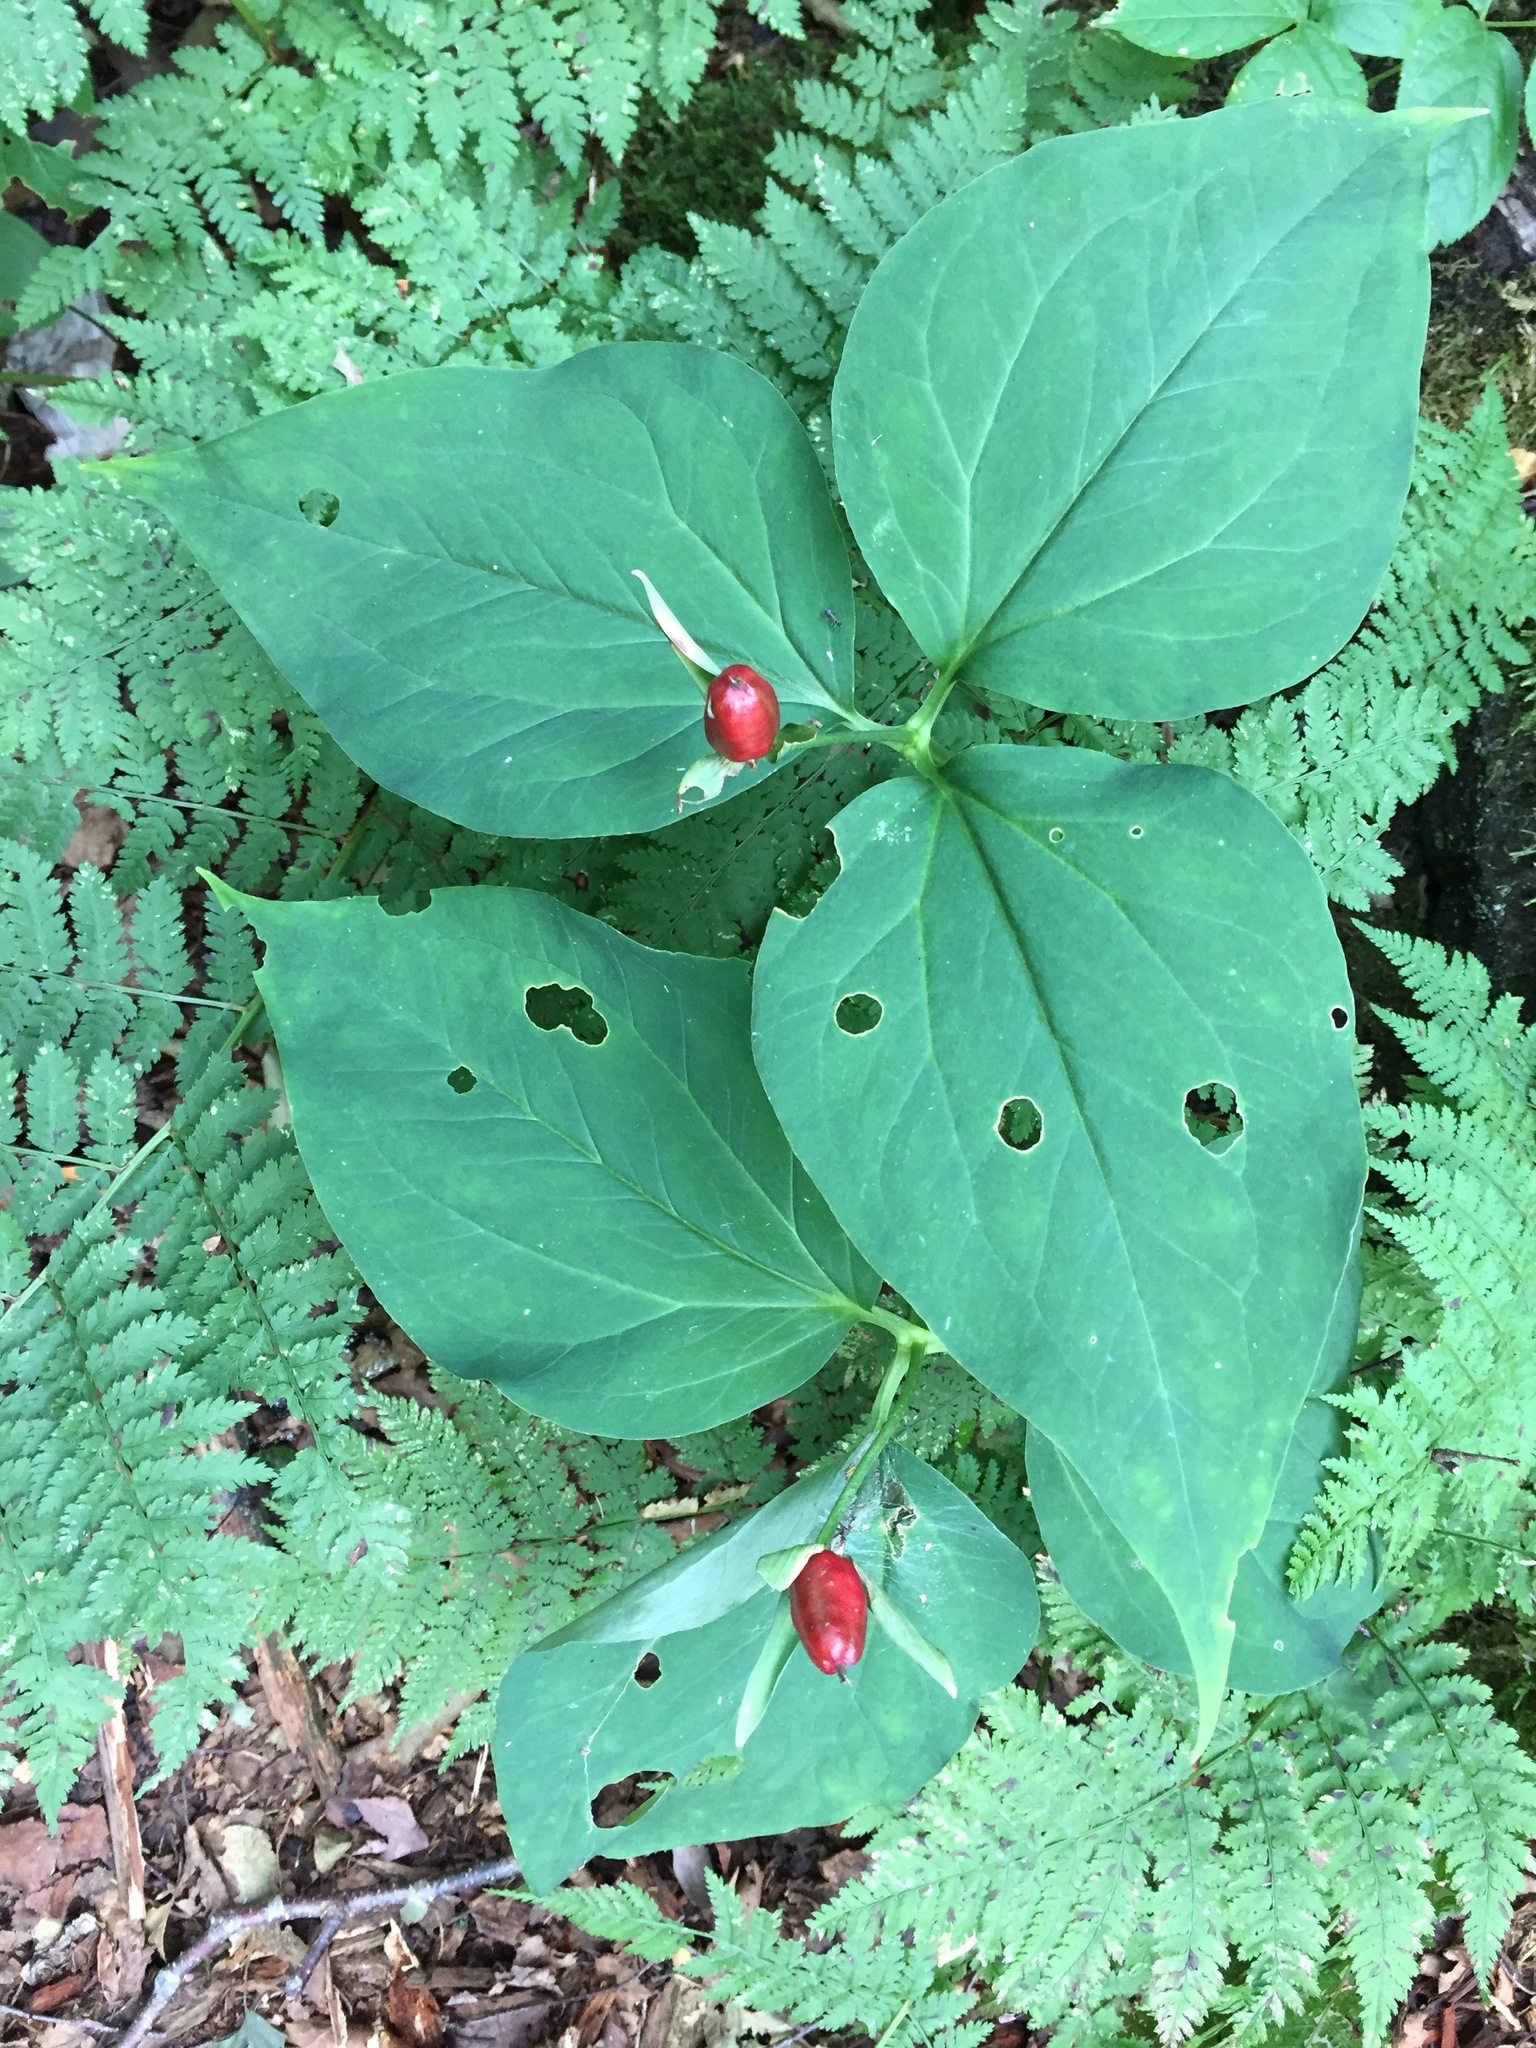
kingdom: Plantae
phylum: Tracheophyta
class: Liliopsida
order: Liliales
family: Melanthiaceae
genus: Trillium
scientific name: Trillium undulatum
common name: Paint trillium
